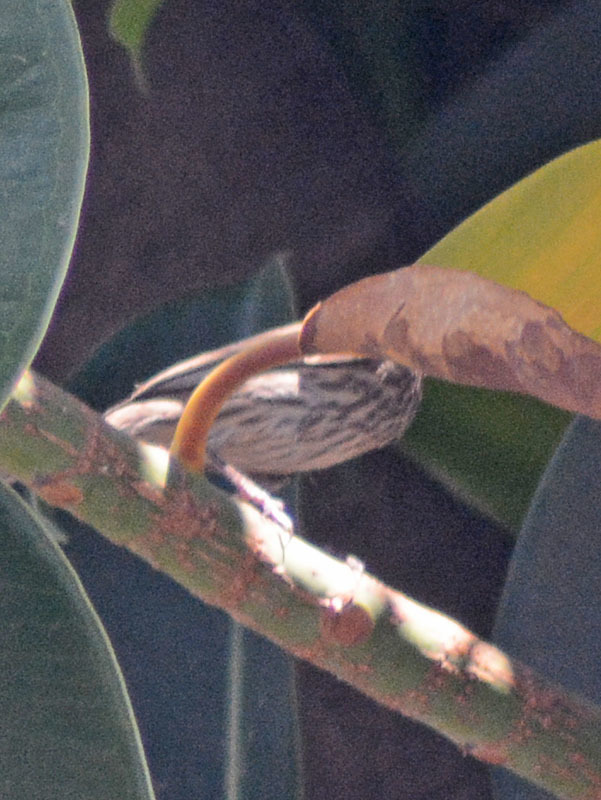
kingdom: Animalia
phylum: Chordata
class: Aves
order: Passeriformes
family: Fringillidae
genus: Haemorhous
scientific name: Haemorhous mexicanus
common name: House finch
